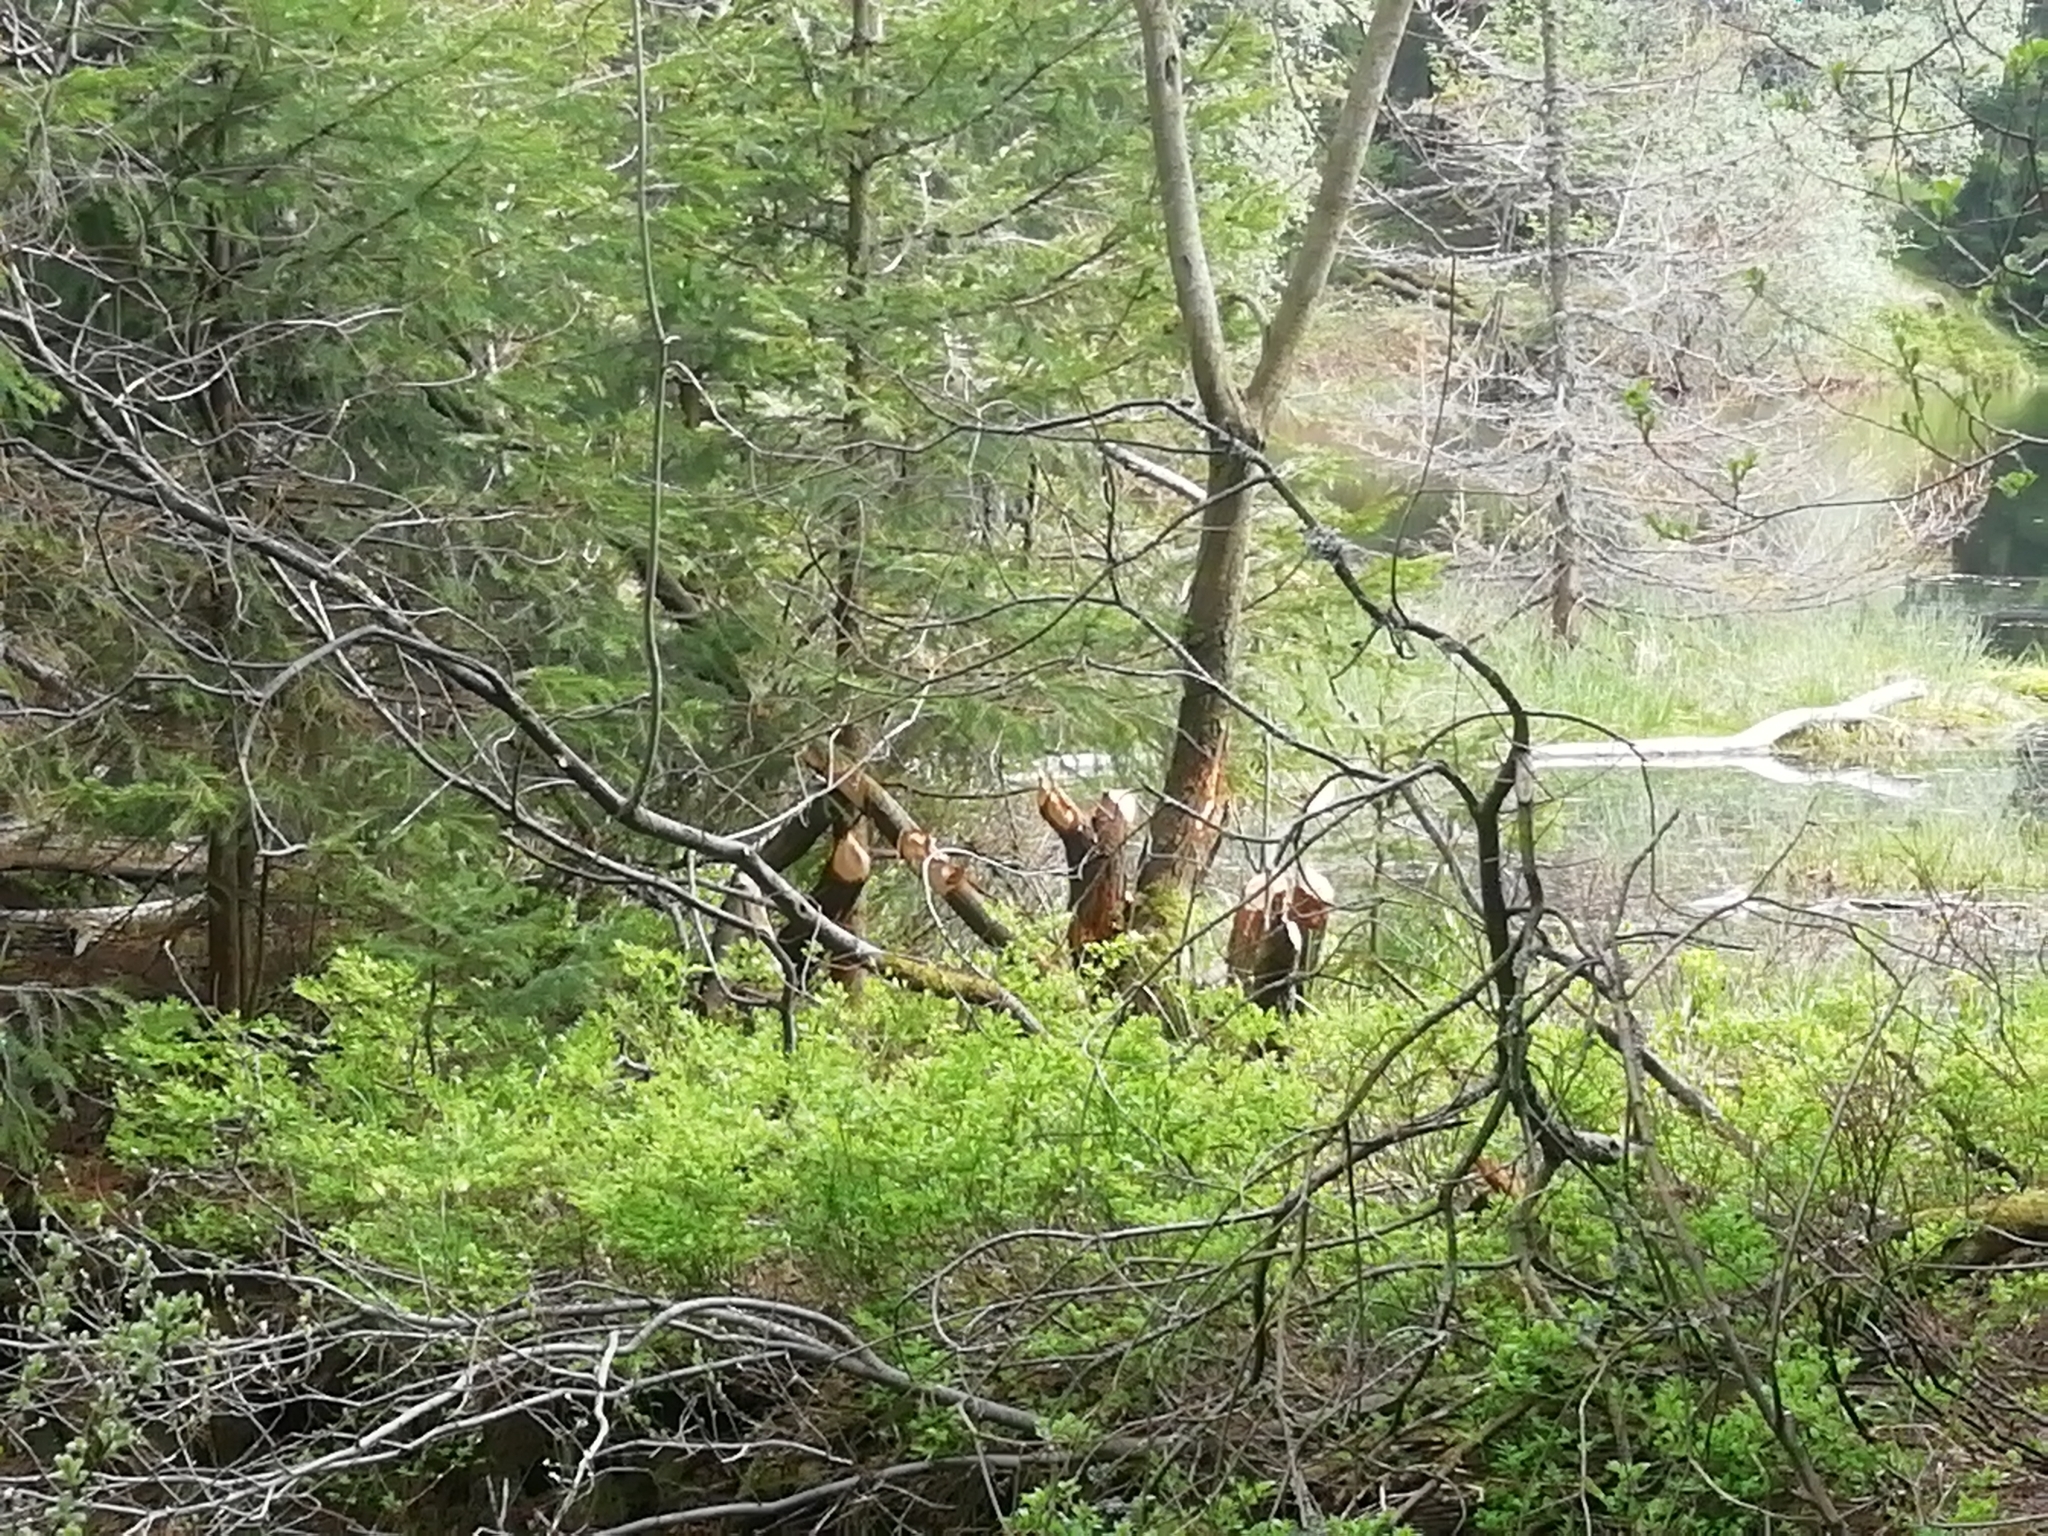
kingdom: Animalia
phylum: Chordata
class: Mammalia
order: Rodentia
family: Castoridae
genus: Castor
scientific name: Castor fiber
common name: Eurasian beaver
